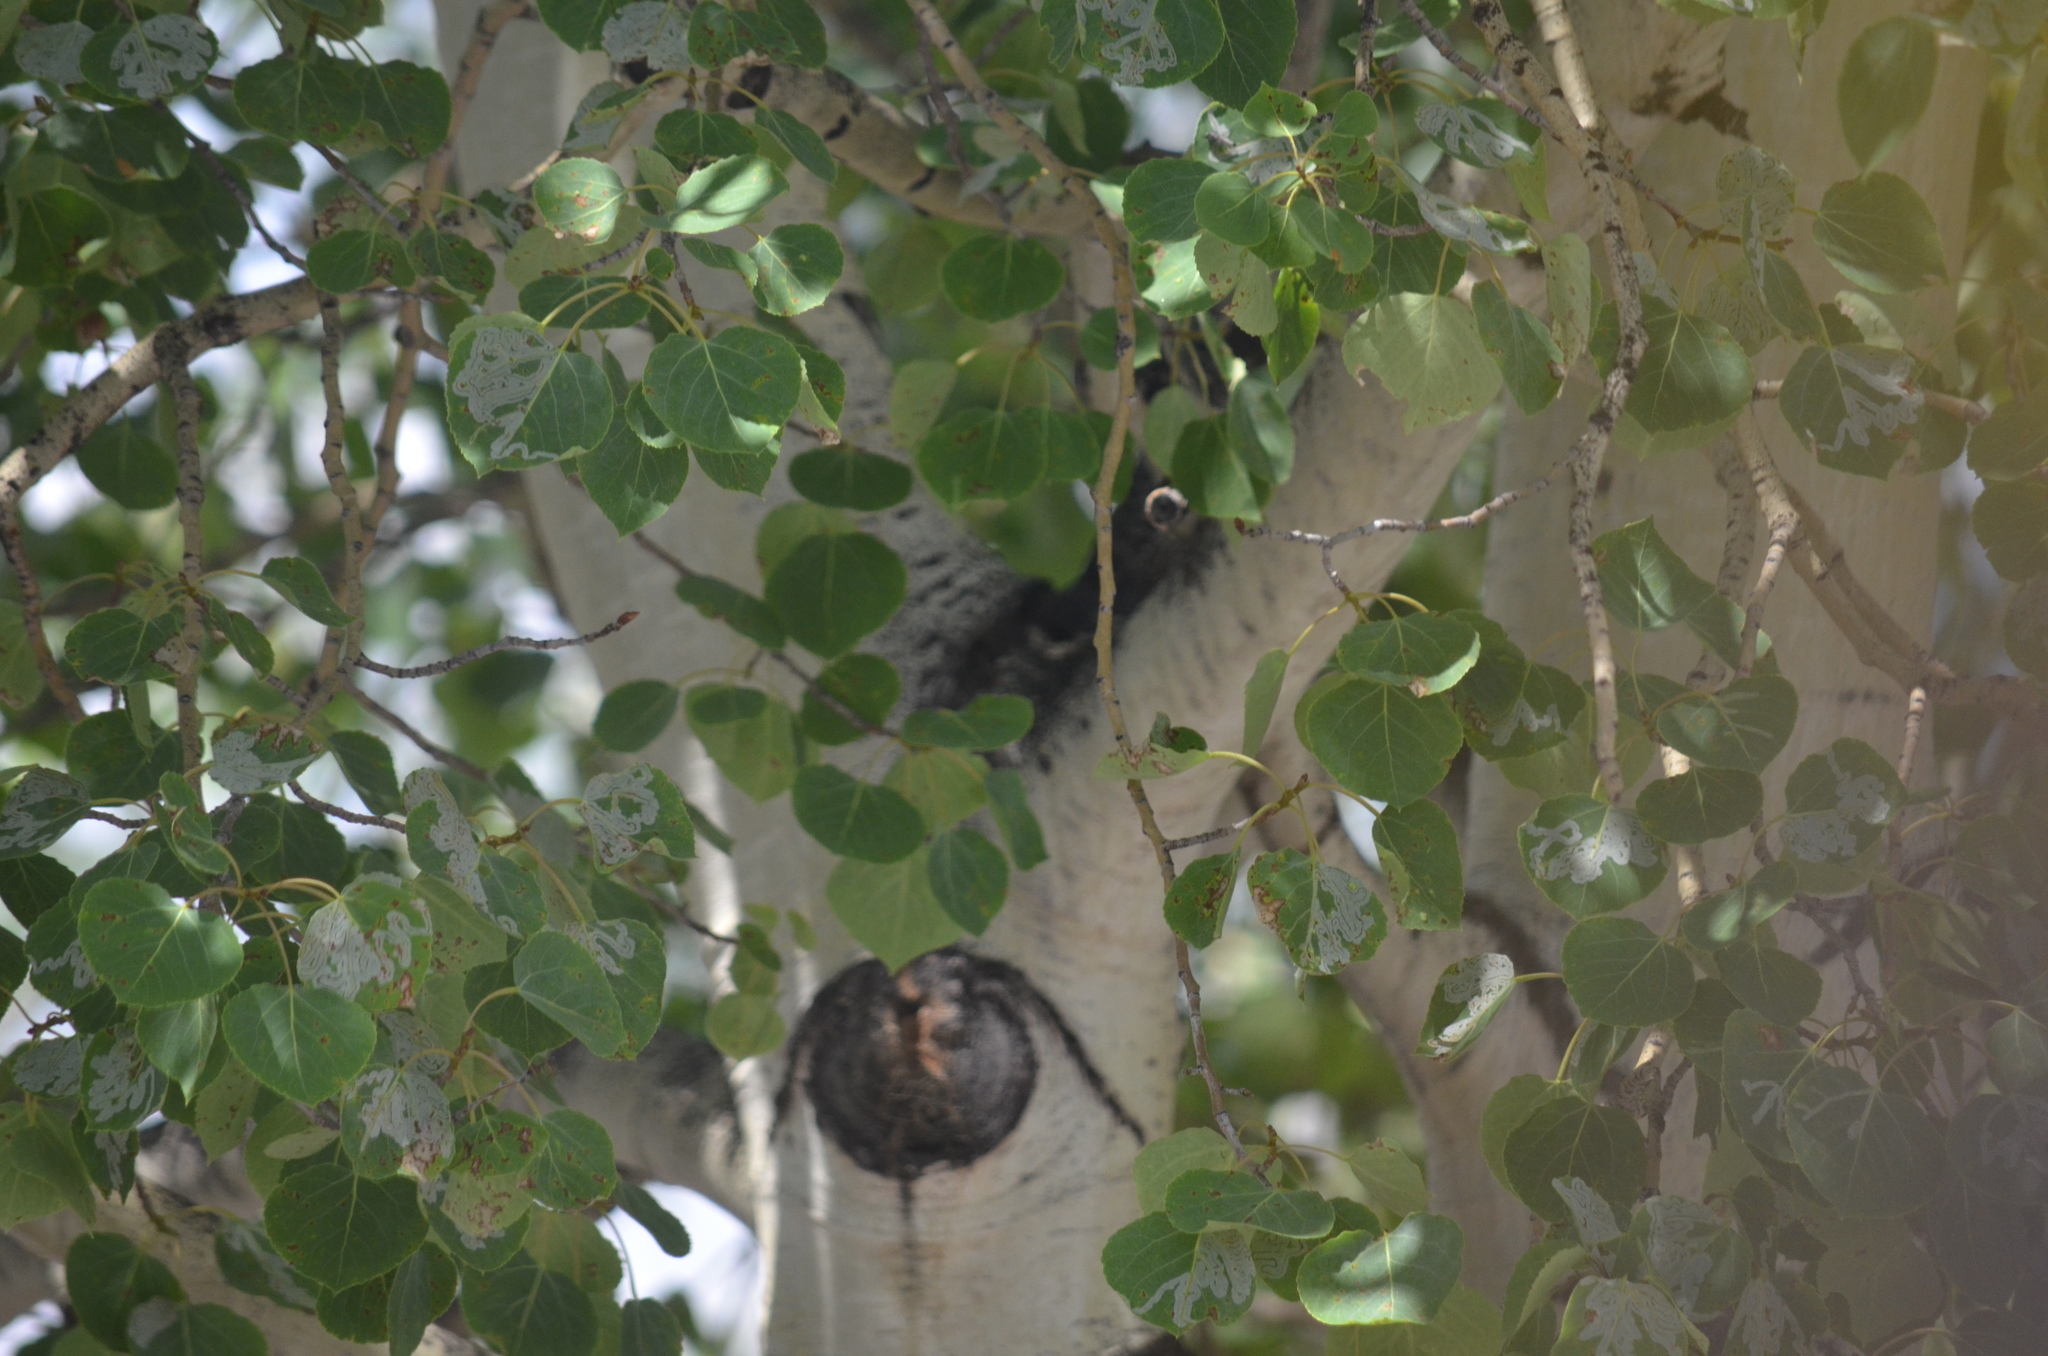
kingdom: Animalia
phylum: Arthropoda
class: Insecta
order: Lepidoptera
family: Gracillariidae
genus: Phyllocnistis
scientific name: Phyllocnistis populiella
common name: Aspen serpentine leafminer moth
